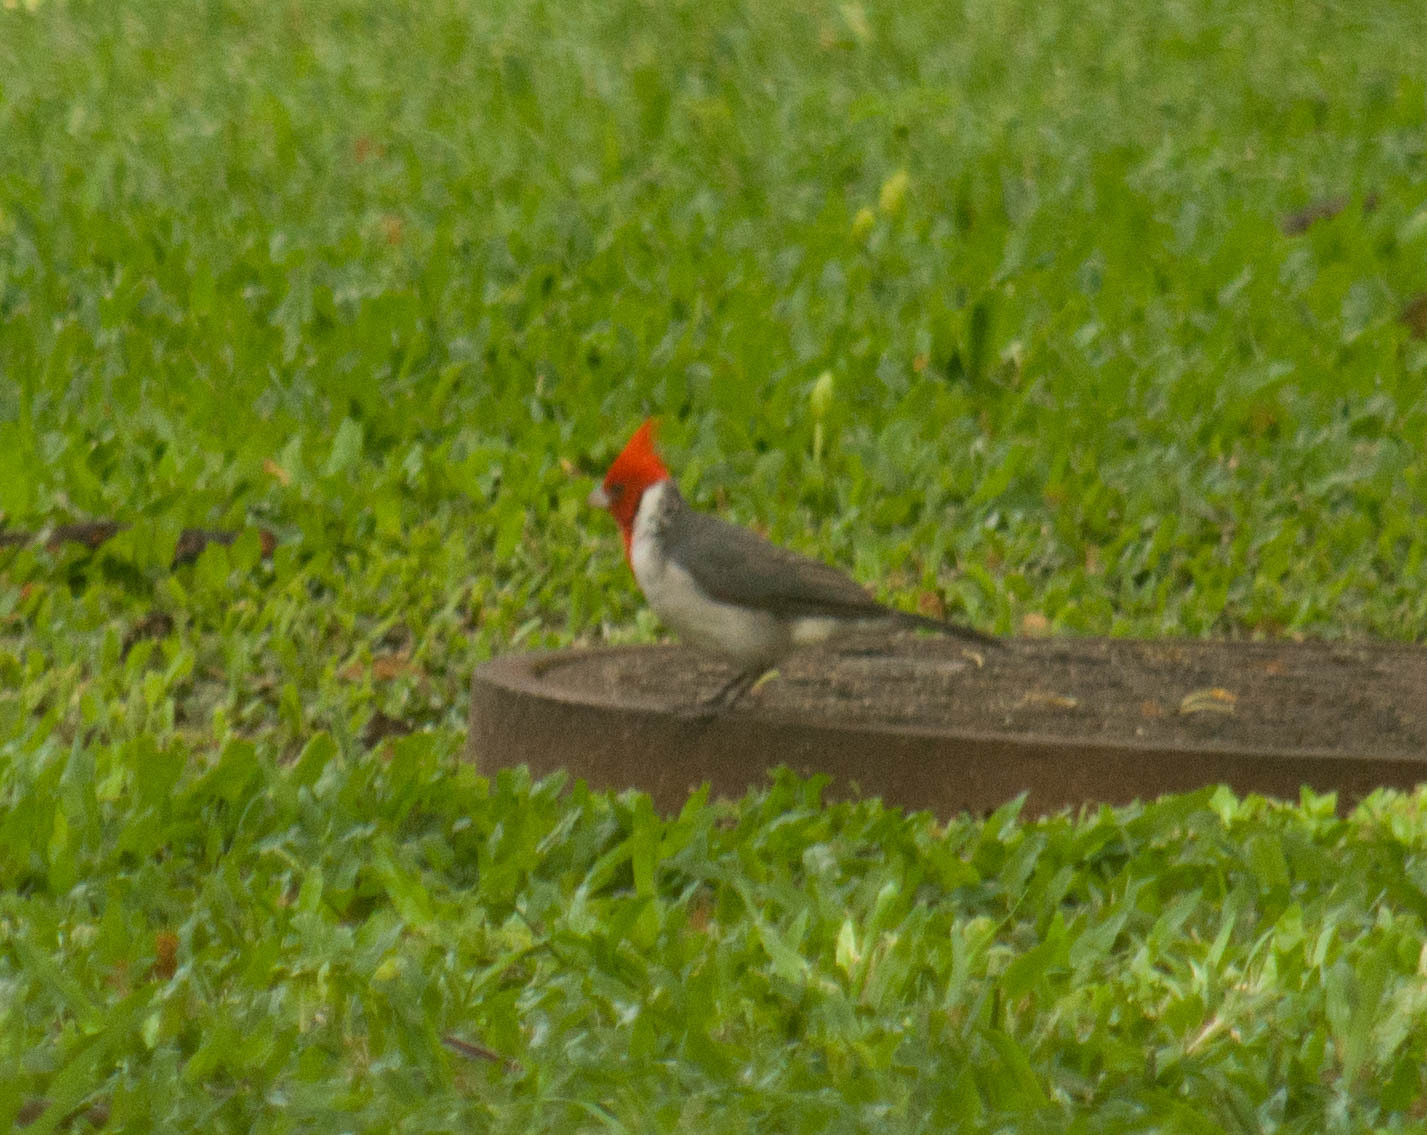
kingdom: Animalia
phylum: Chordata
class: Aves
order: Passeriformes
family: Thraupidae
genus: Paroaria
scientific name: Paroaria coronata
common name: Red-crested cardinal
